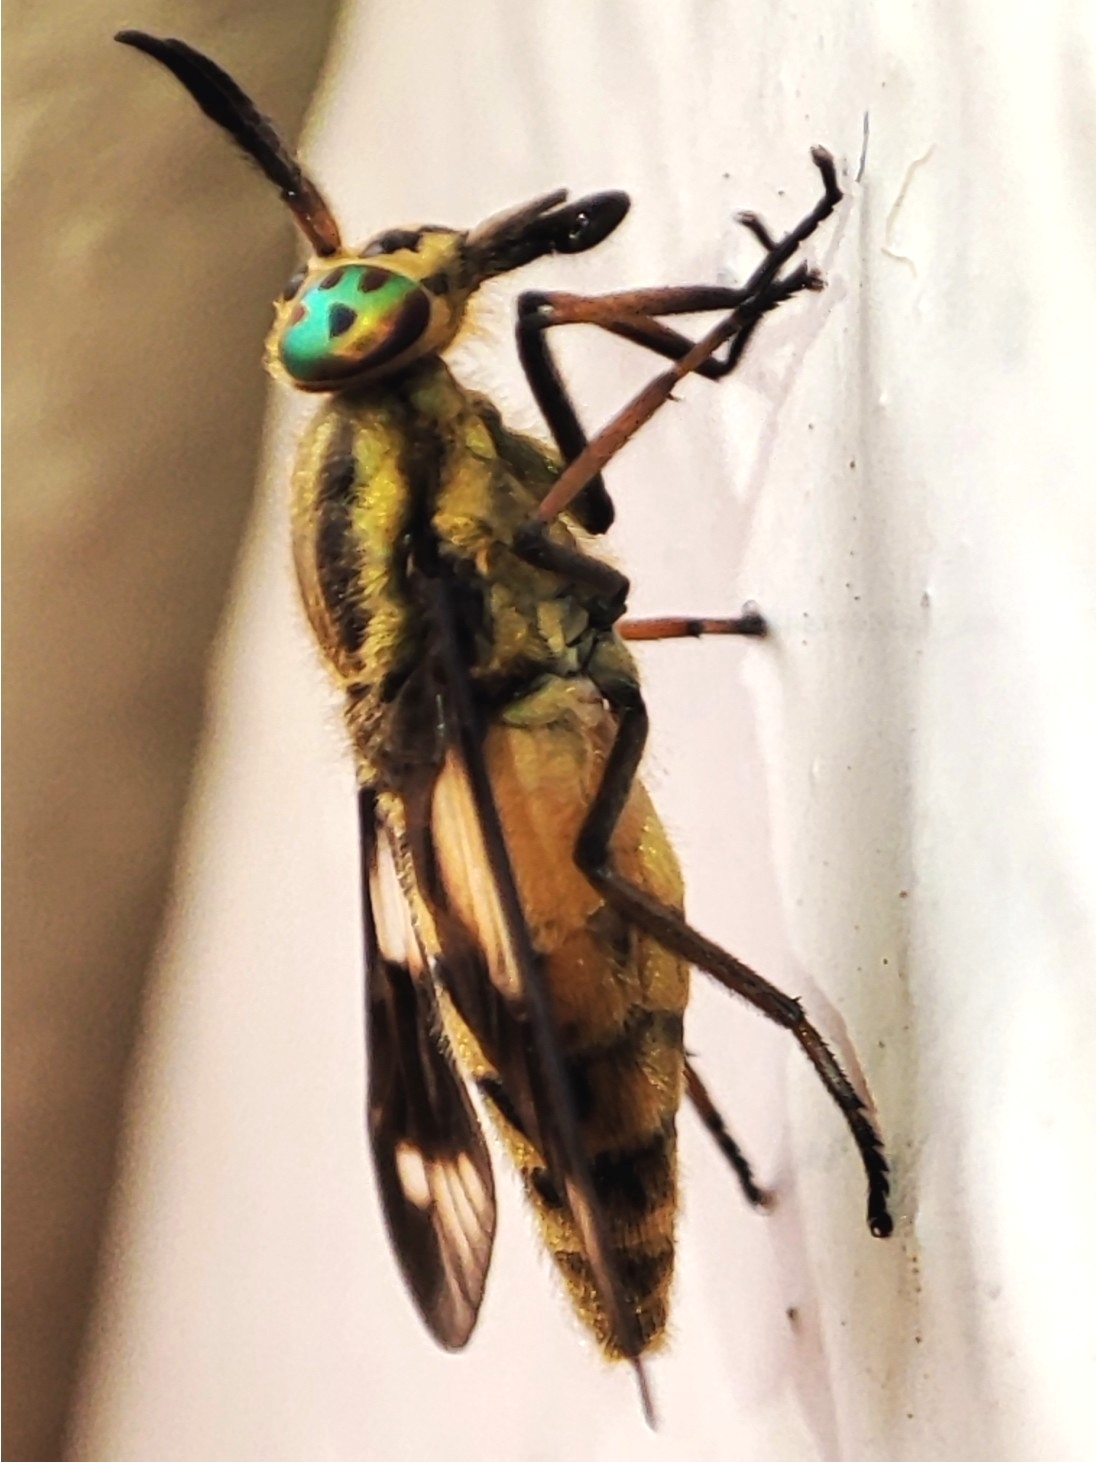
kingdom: Animalia
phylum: Arthropoda
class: Insecta
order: Diptera
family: Tabanidae
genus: Chrysops
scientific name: Chrysops relictus
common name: Twin-lobed deerfly
